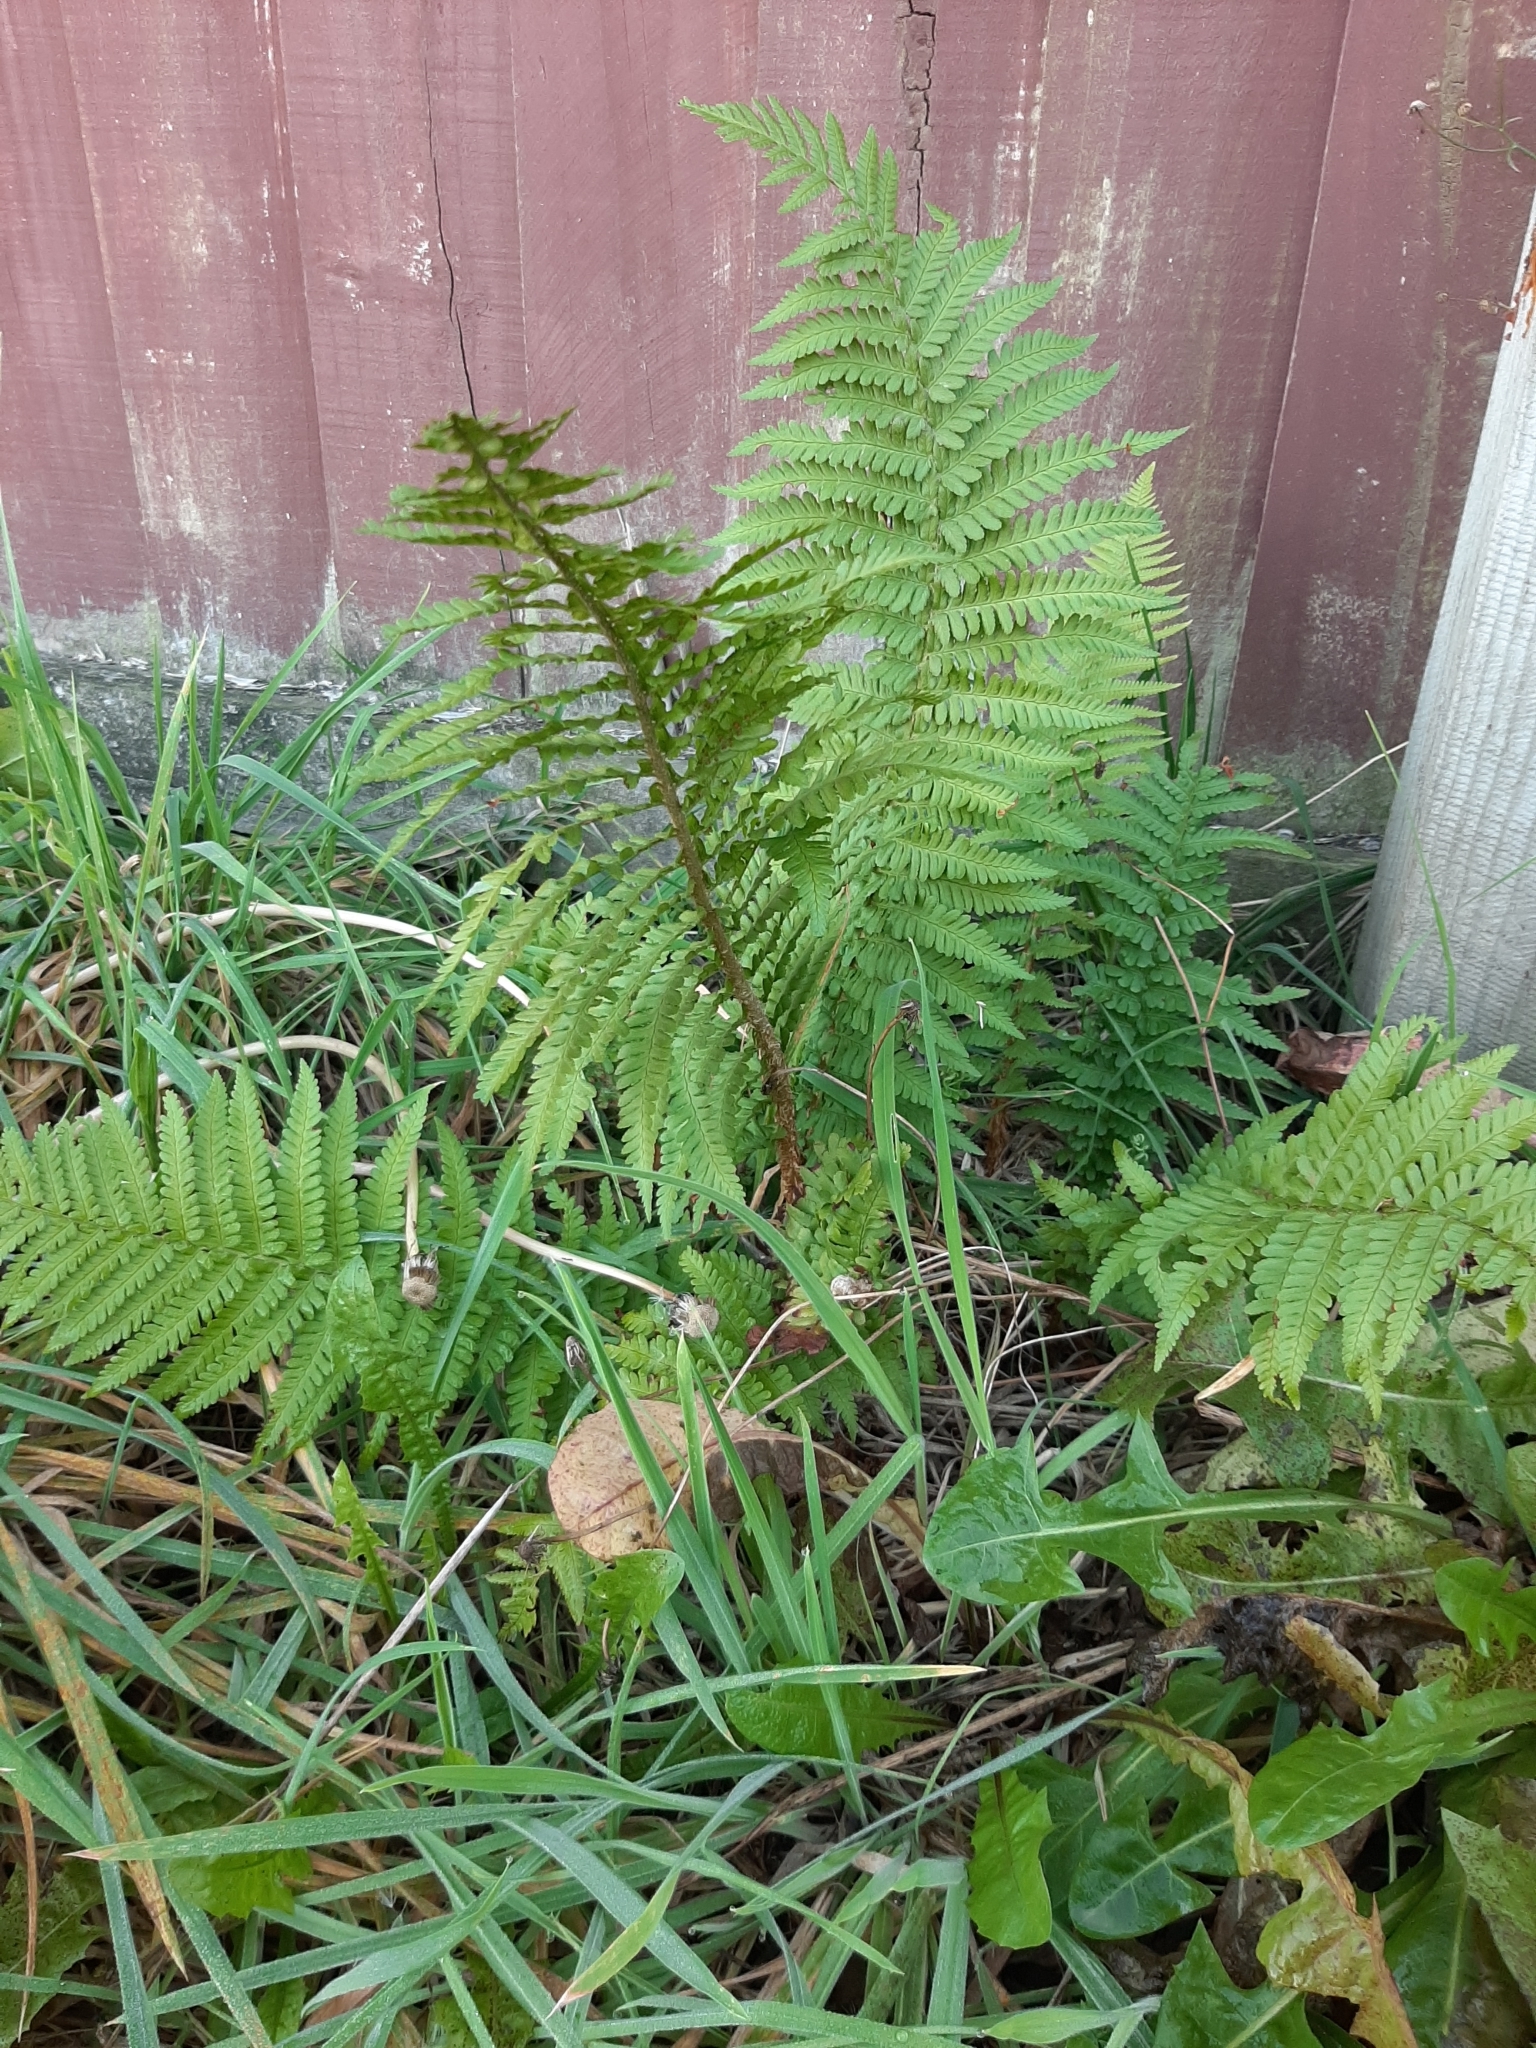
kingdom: Plantae
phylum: Tracheophyta
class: Polypodiopsida
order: Polypodiales
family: Dryopteridaceae
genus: Dryopteris
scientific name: Dryopteris filix-mas
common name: Male fern
